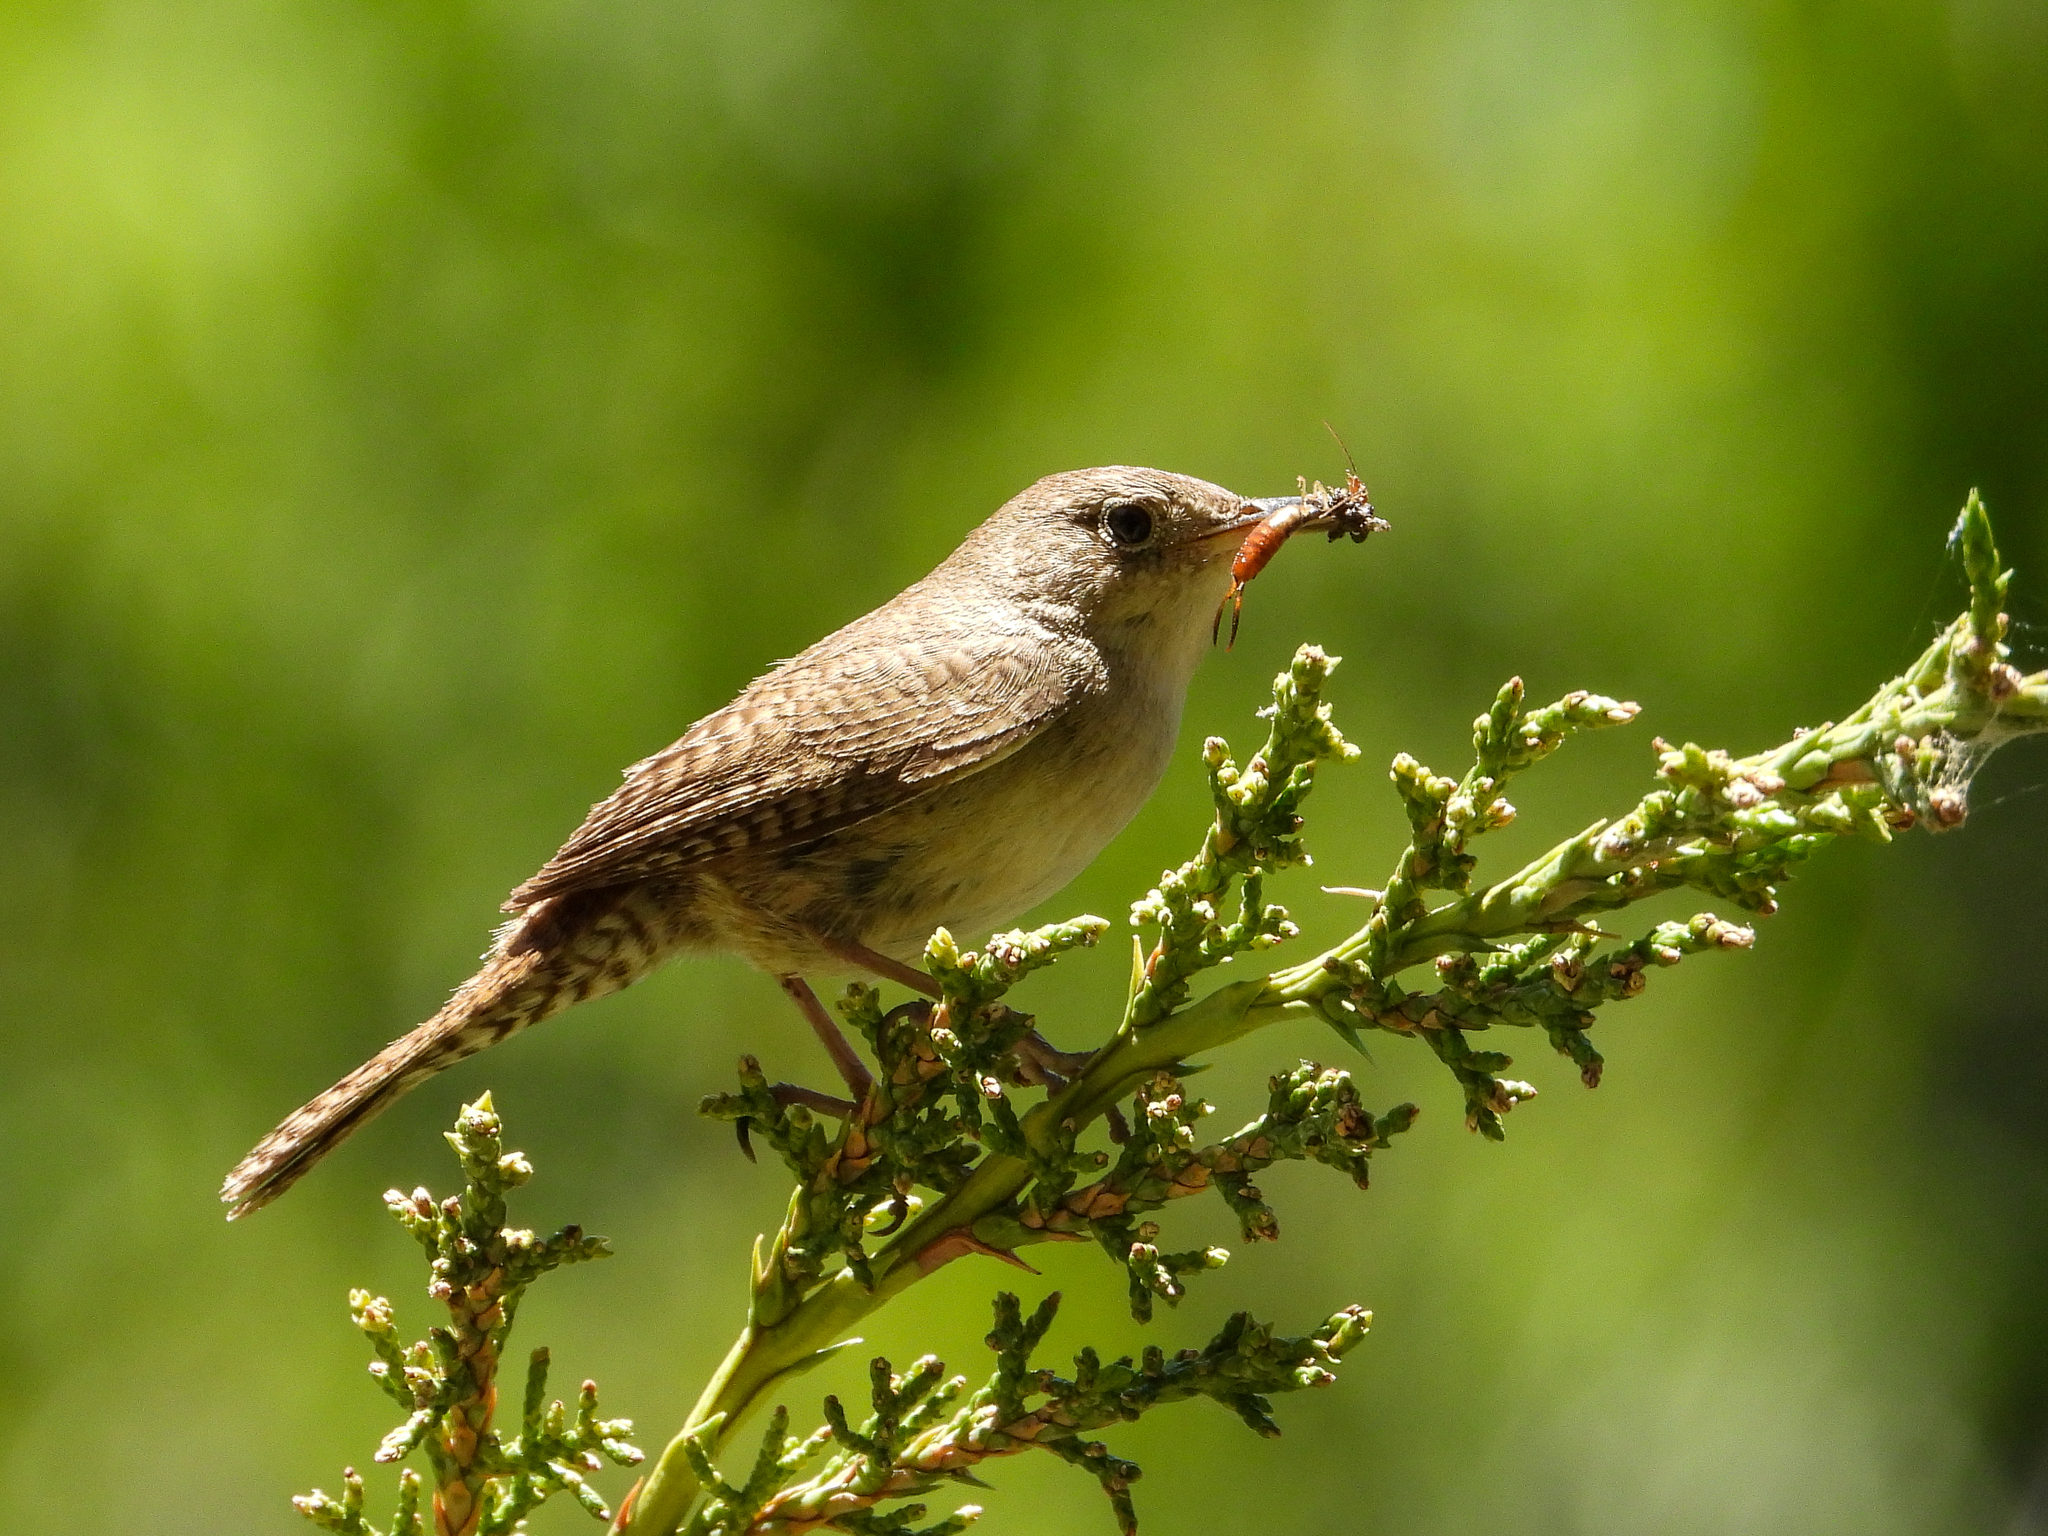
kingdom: Animalia
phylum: Chordata
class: Aves
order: Passeriformes
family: Troglodytidae
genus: Troglodytes
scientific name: Troglodytes aedon
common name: House wren
